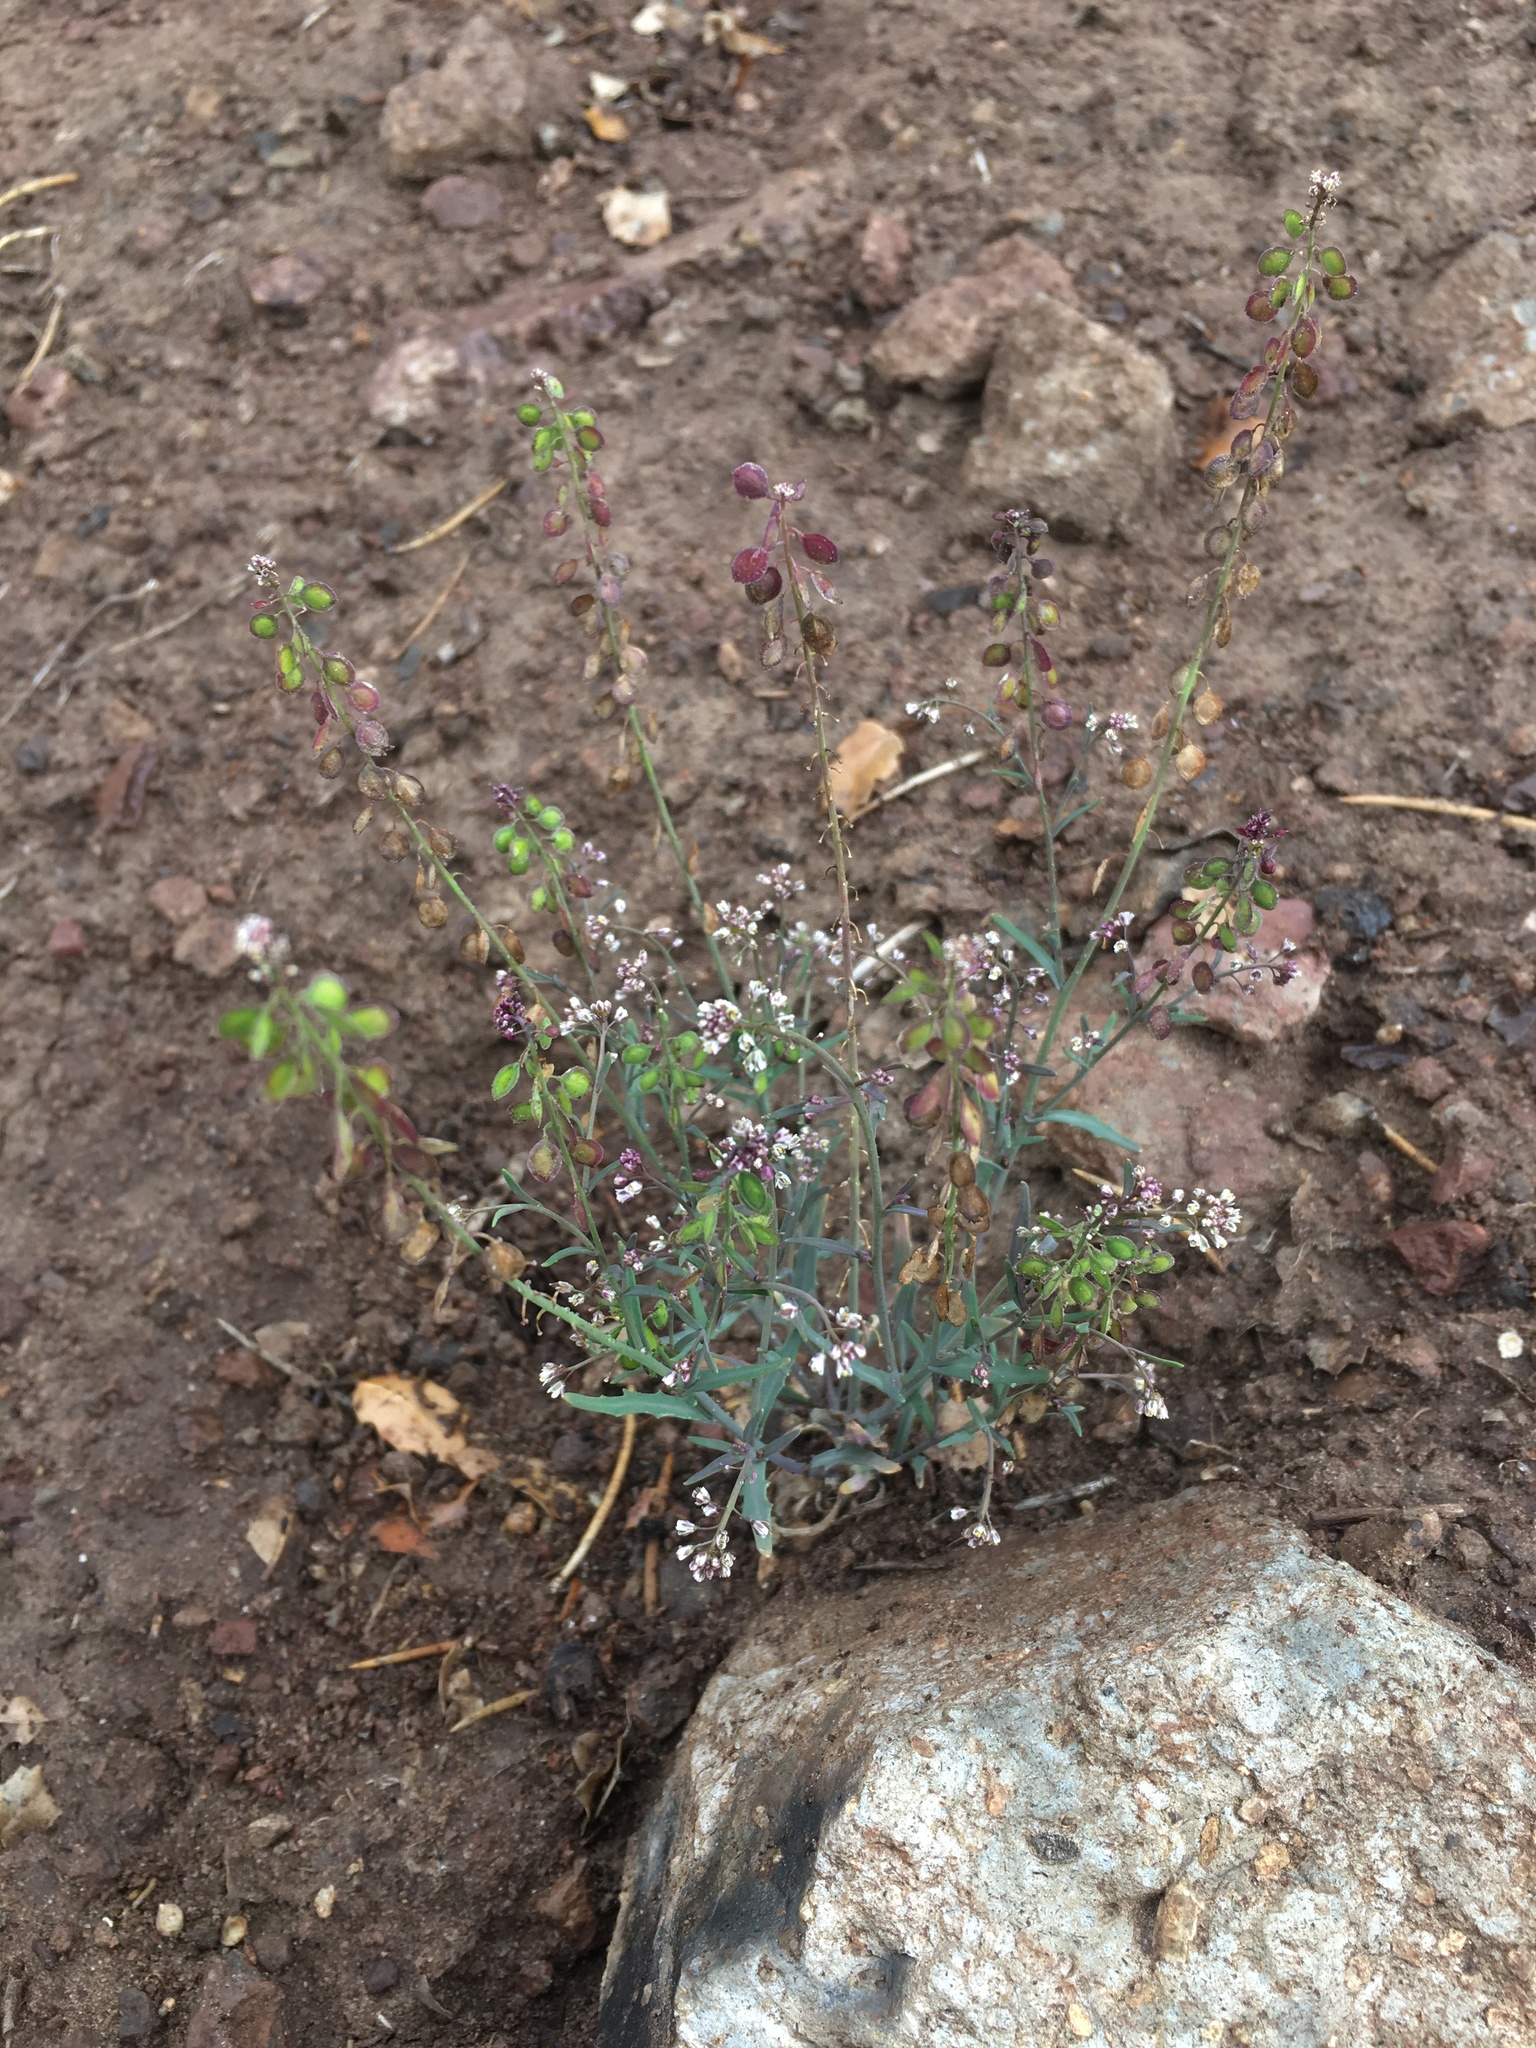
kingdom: Plantae
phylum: Tracheophyta
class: Magnoliopsida
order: Brassicales
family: Brassicaceae
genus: Thysanocarpus
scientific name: Thysanocarpus curvipes
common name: Sand fringepod
